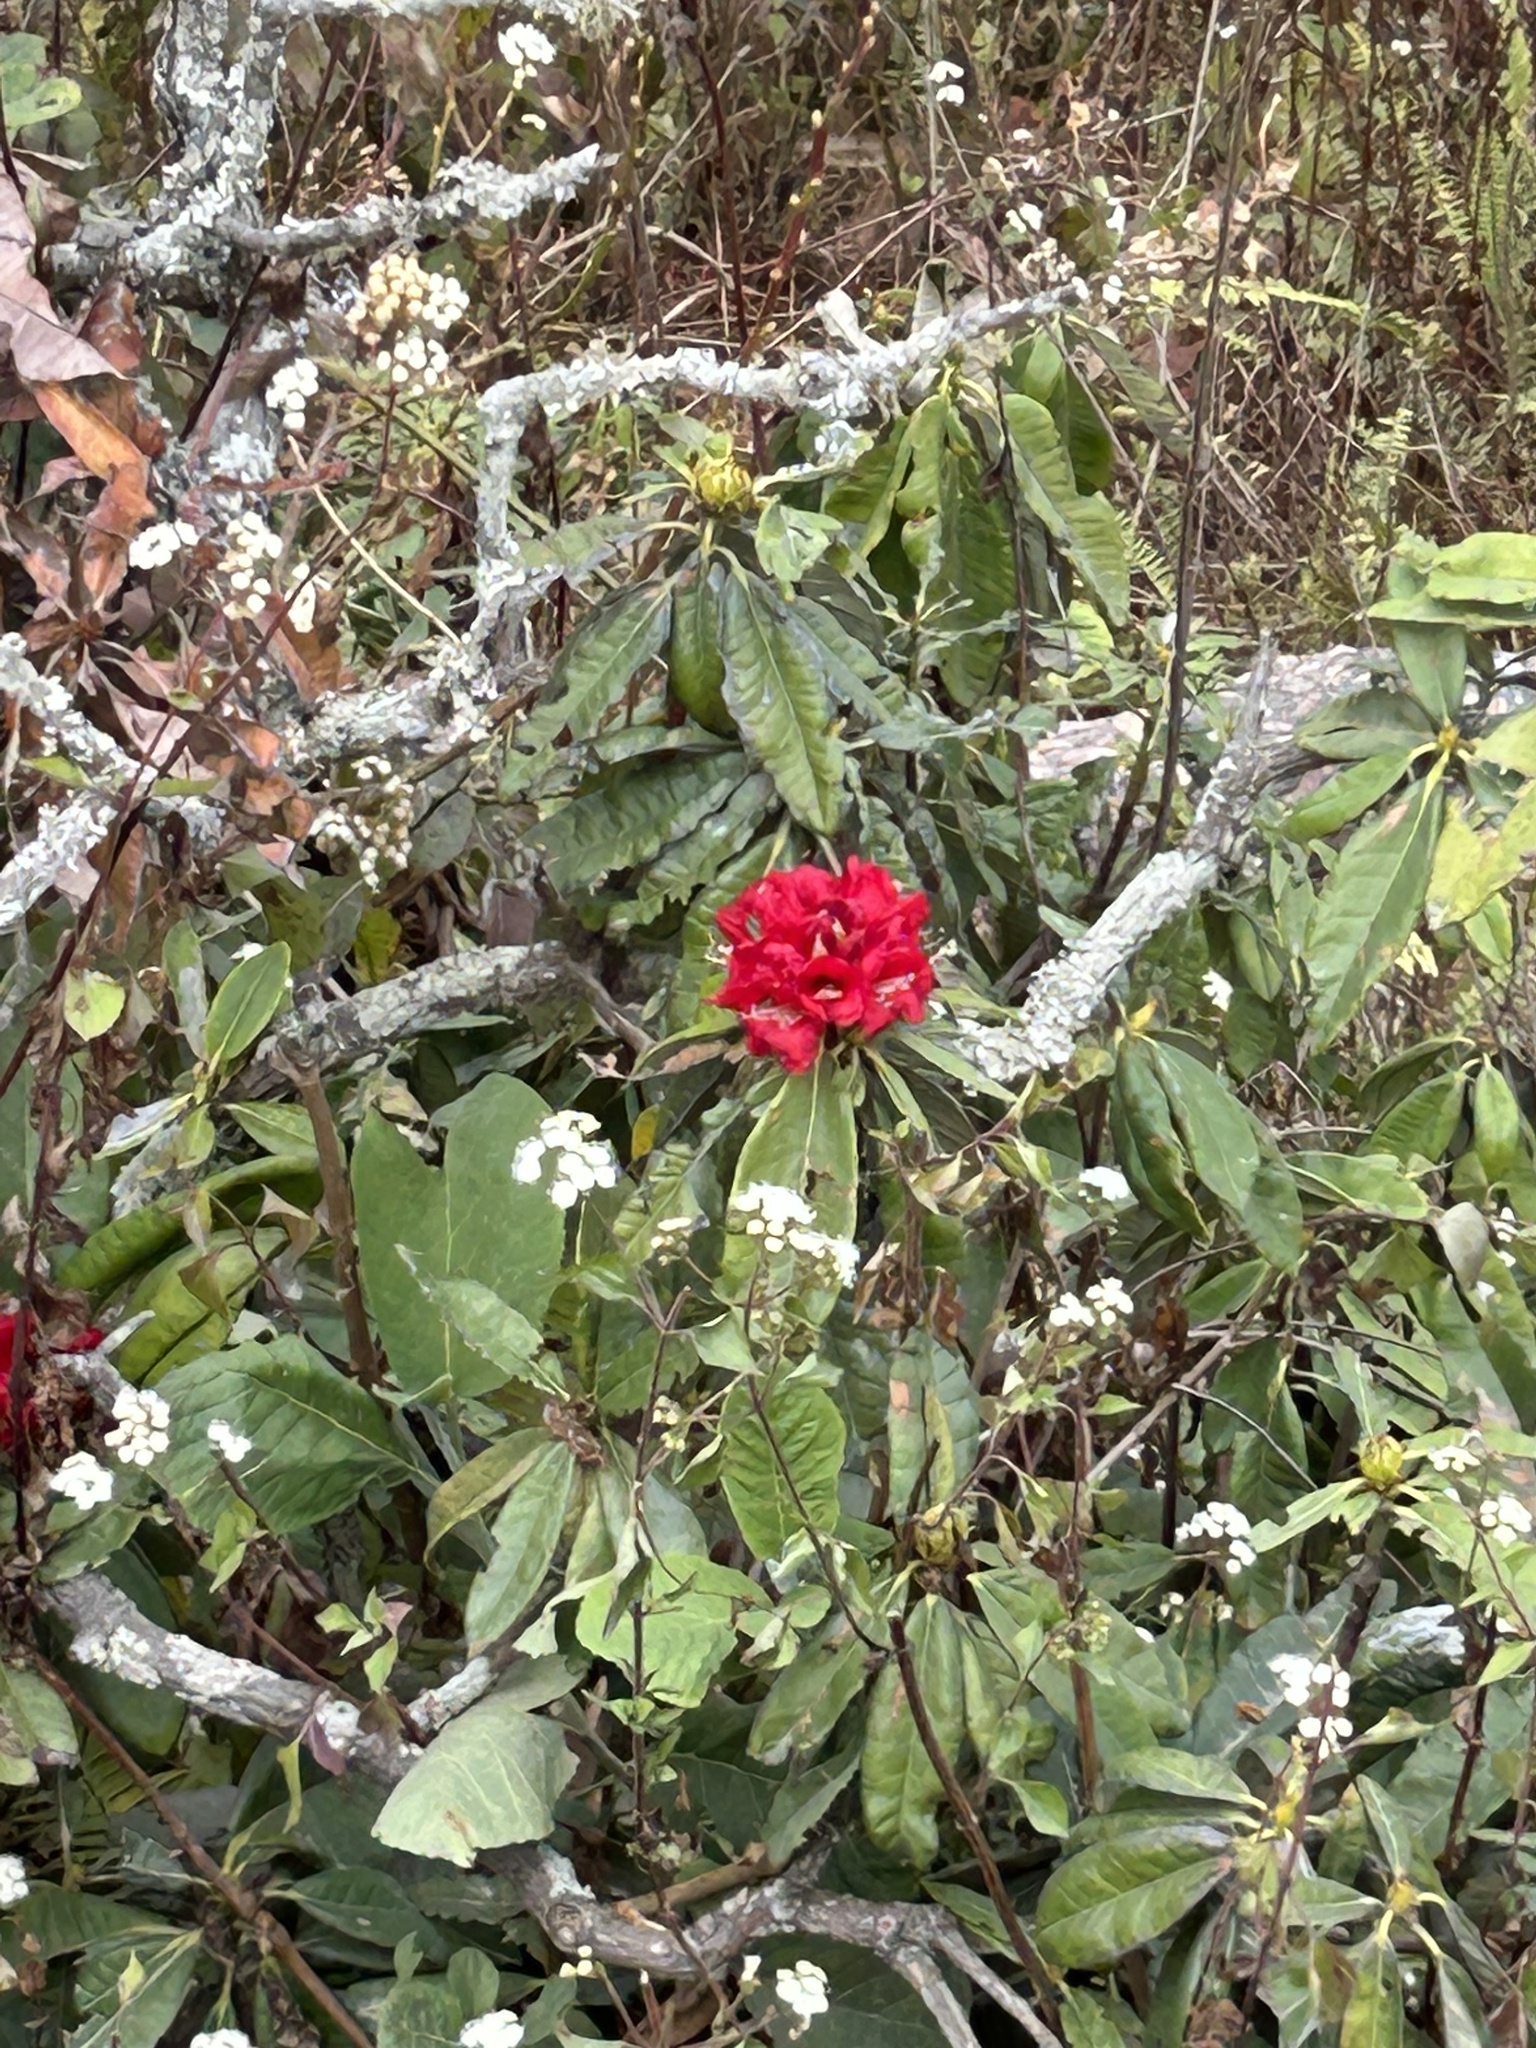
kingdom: Plantae
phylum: Tracheophyta
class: Magnoliopsida
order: Ericales
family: Ericaceae
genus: Rhododendron
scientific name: Rhododendron arboreum
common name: Tree rhododendron
